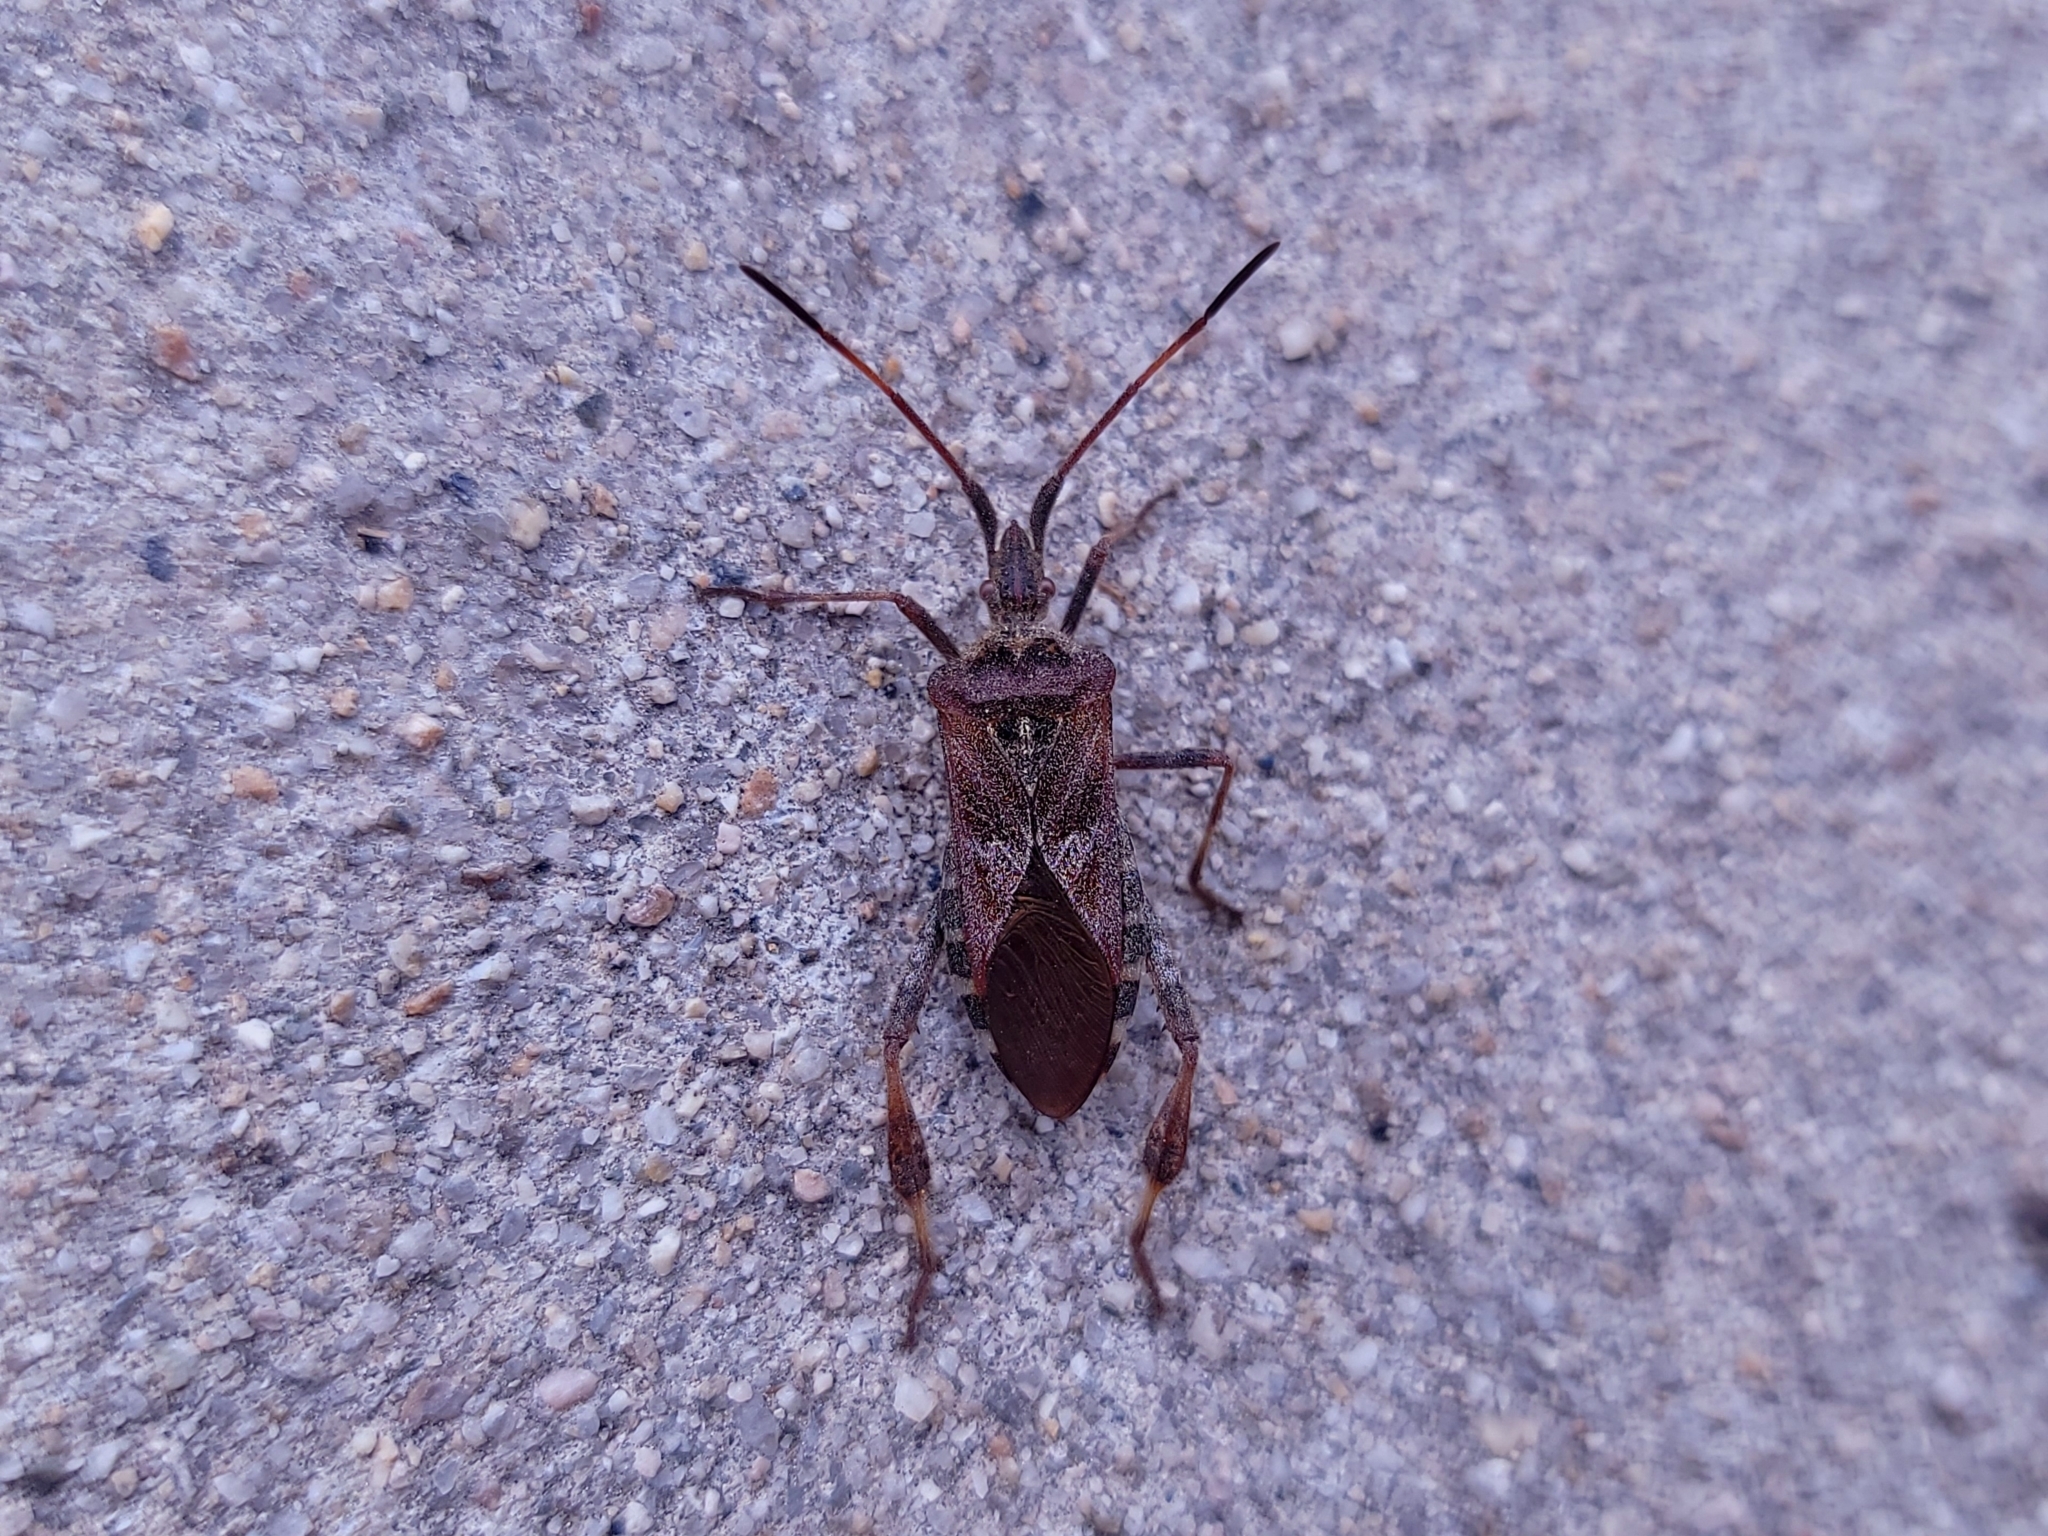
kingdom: Animalia
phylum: Arthropoda
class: Insecta
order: Hemiptera
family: Coreidae
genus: Leptoglossus
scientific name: Leptoglossus occidentalis
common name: Western conifer-seed bug
